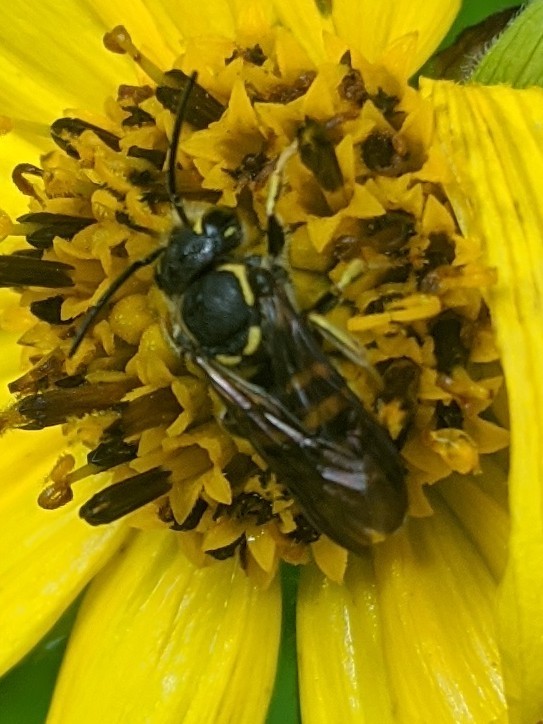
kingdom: Animalia
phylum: Arthropoda
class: Insecta
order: Hymenoptera
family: Megachilidae
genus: Paranthidium
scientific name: Paranthidium jugatorium
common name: Sunflower burrowing-resin bee
